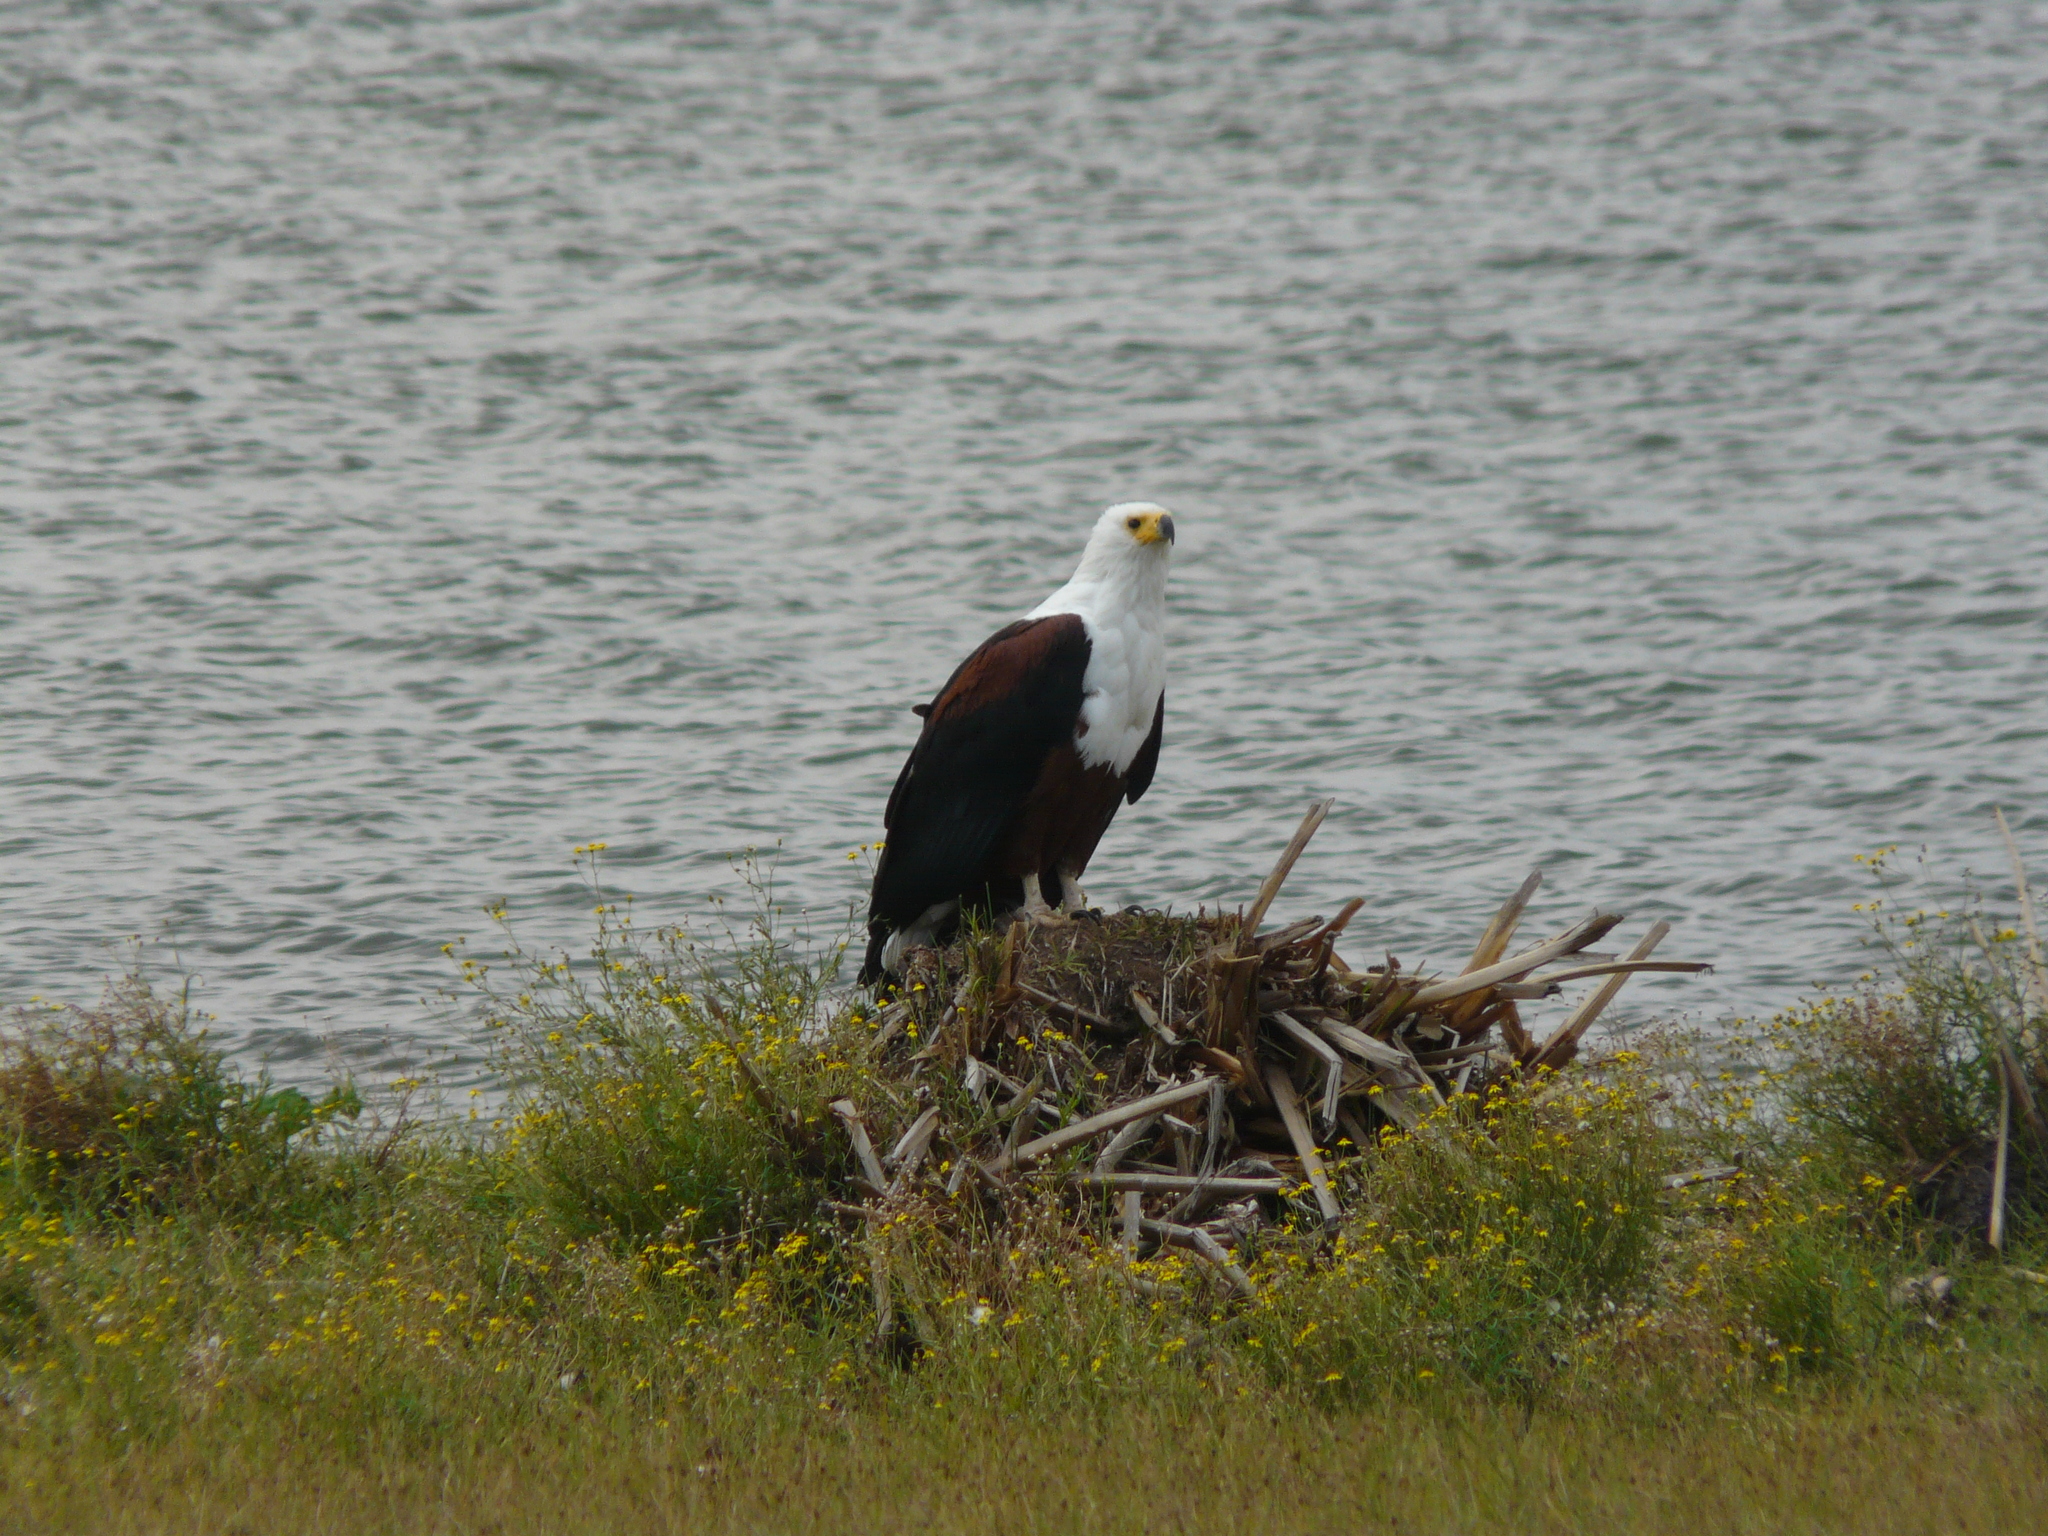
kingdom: Animalia
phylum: Chordata
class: Aves
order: Accipitriformes
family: Accipitridae
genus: Haliaeetus
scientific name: Haliaeetus vocifer
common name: African fish eagle
